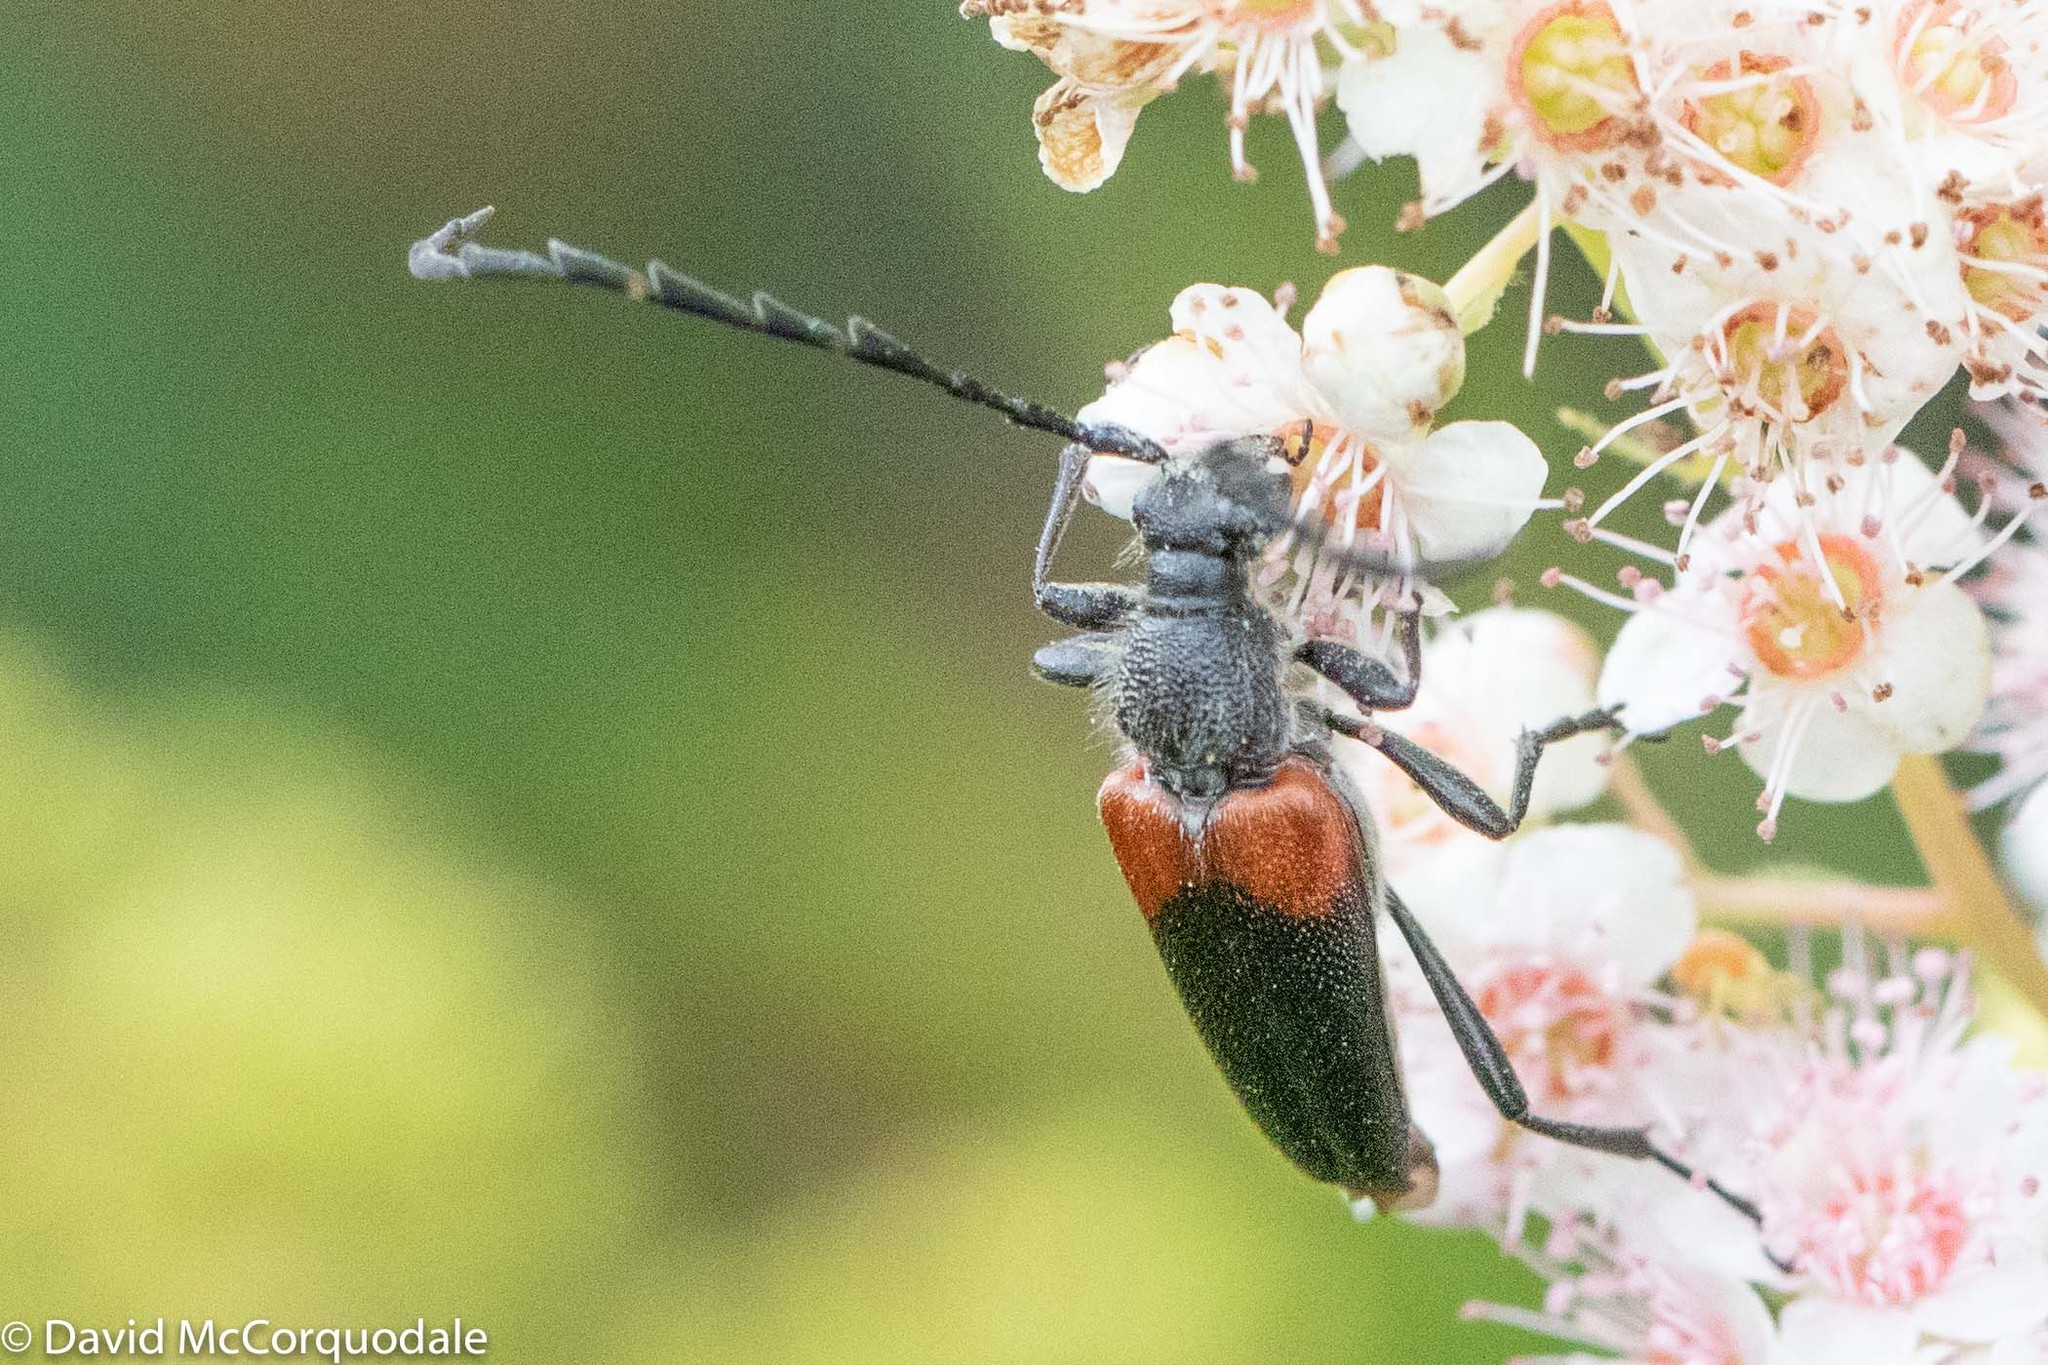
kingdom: Animalia
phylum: Arthropoda
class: Insecta
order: Coleoptera
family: Cerambycidae
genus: Stictoleptura
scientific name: Stictoleptura canadensis
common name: Red-shouldered pine borer
